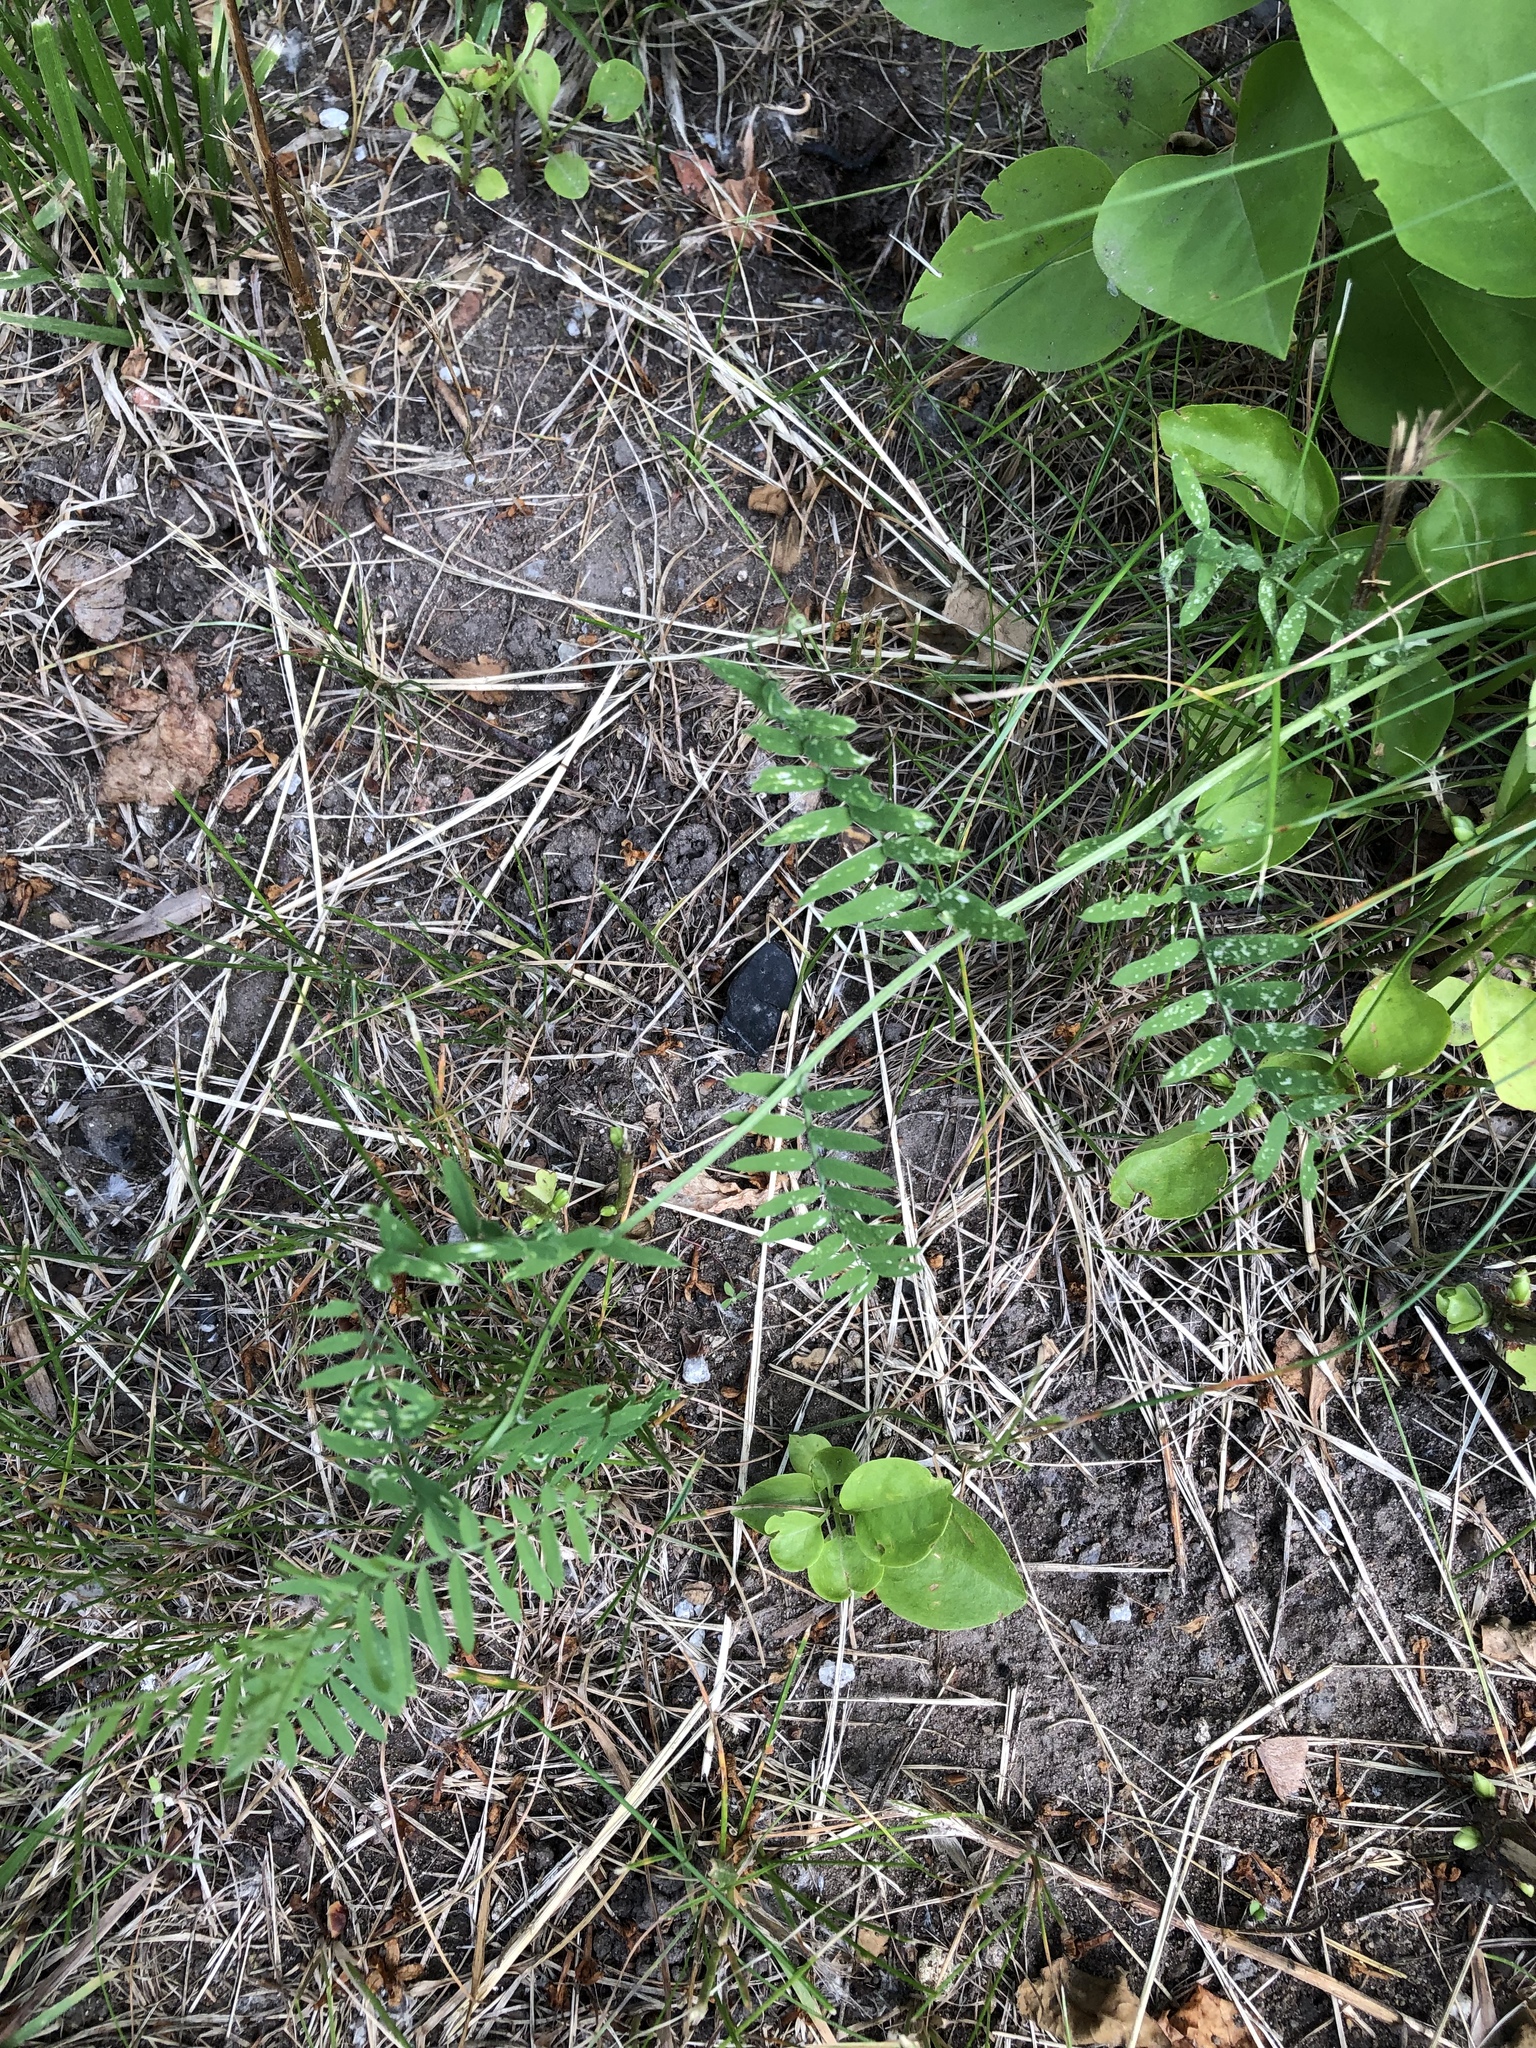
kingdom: Plantae
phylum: Tracheophyta
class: Magnoliopsida
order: Fabales
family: Fabaceae
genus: Vicia
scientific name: Vicia cracca
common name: Bird vetch
